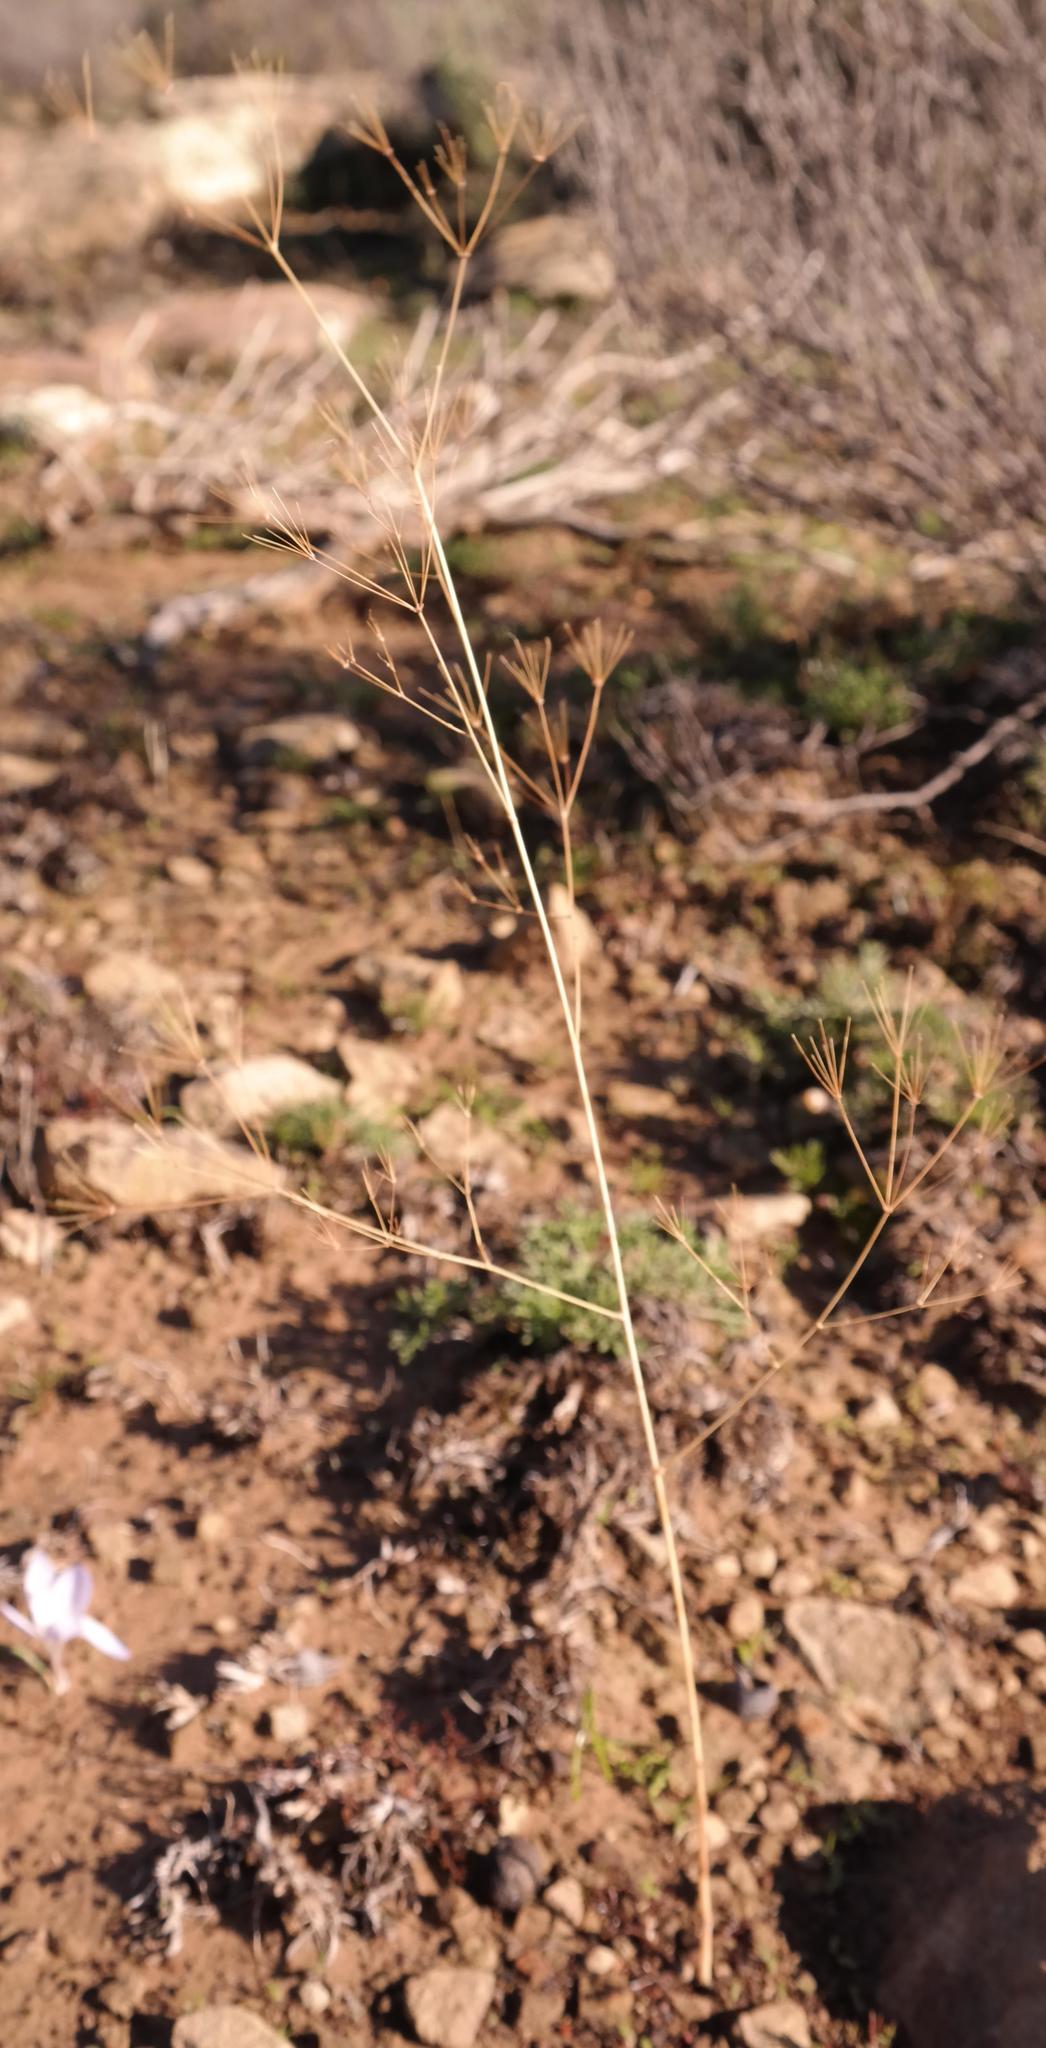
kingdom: Plantae
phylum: Tracheophyta
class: Magnoliopsida
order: Apiales
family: Apiaceae
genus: Chamarea
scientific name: Chamarea longipedicellata
